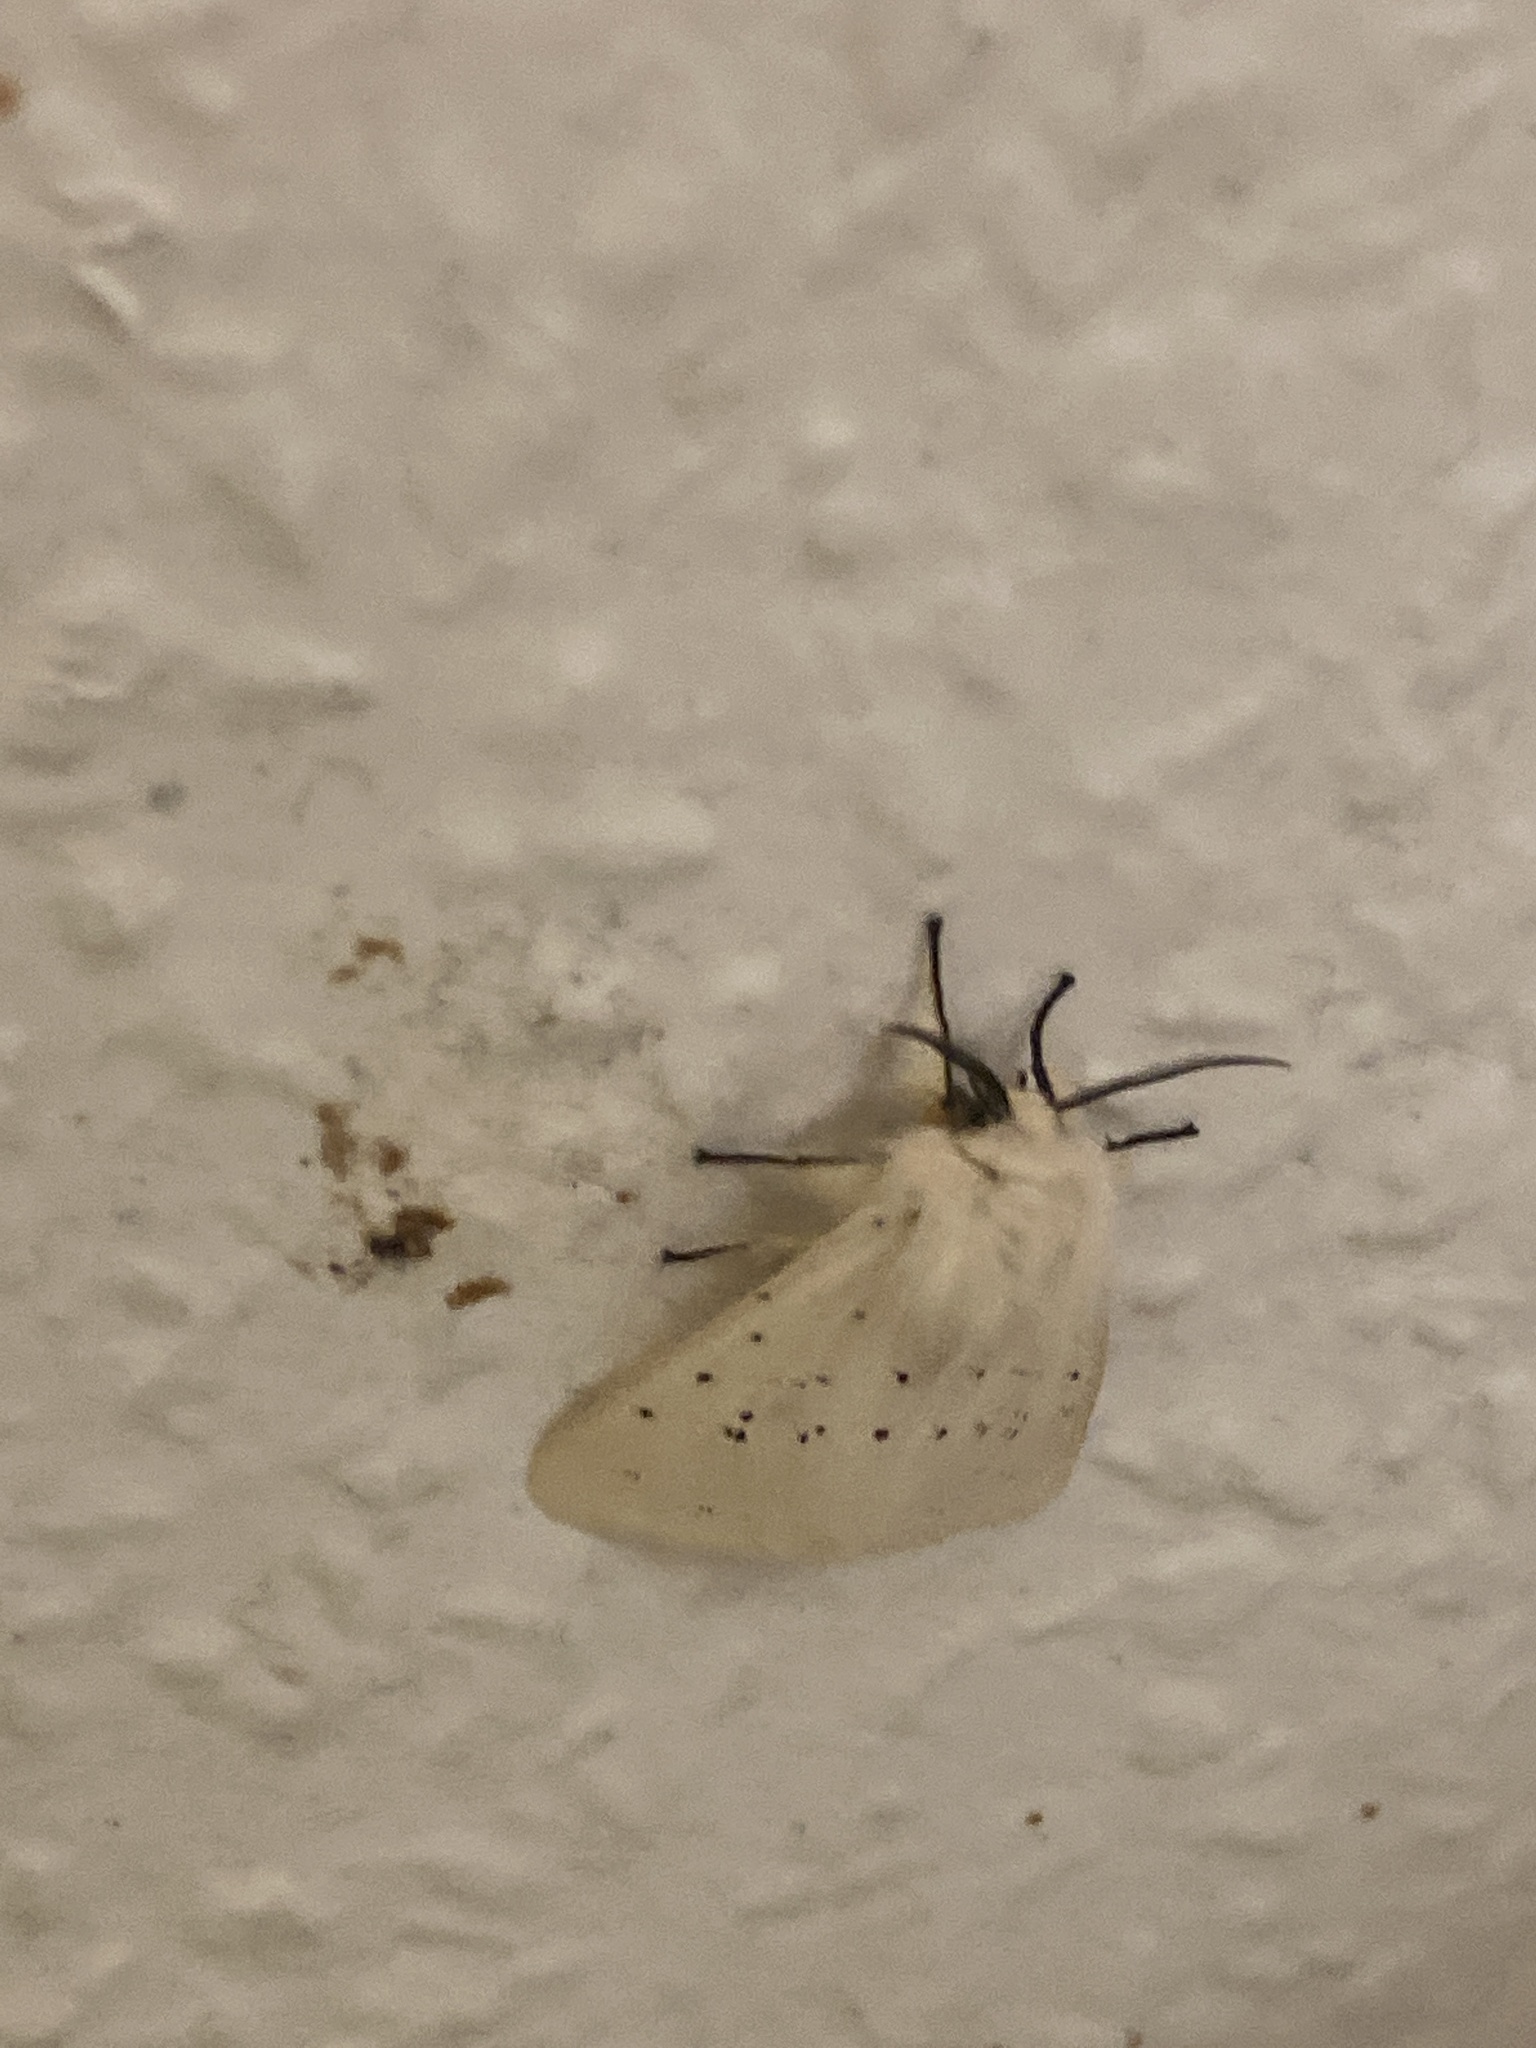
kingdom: Animalia
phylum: Arthropoda
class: Insecta
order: Lepidoptera
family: Erebidae
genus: Spilosoma
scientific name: Spilosoma lubricipeda
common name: White ermine
